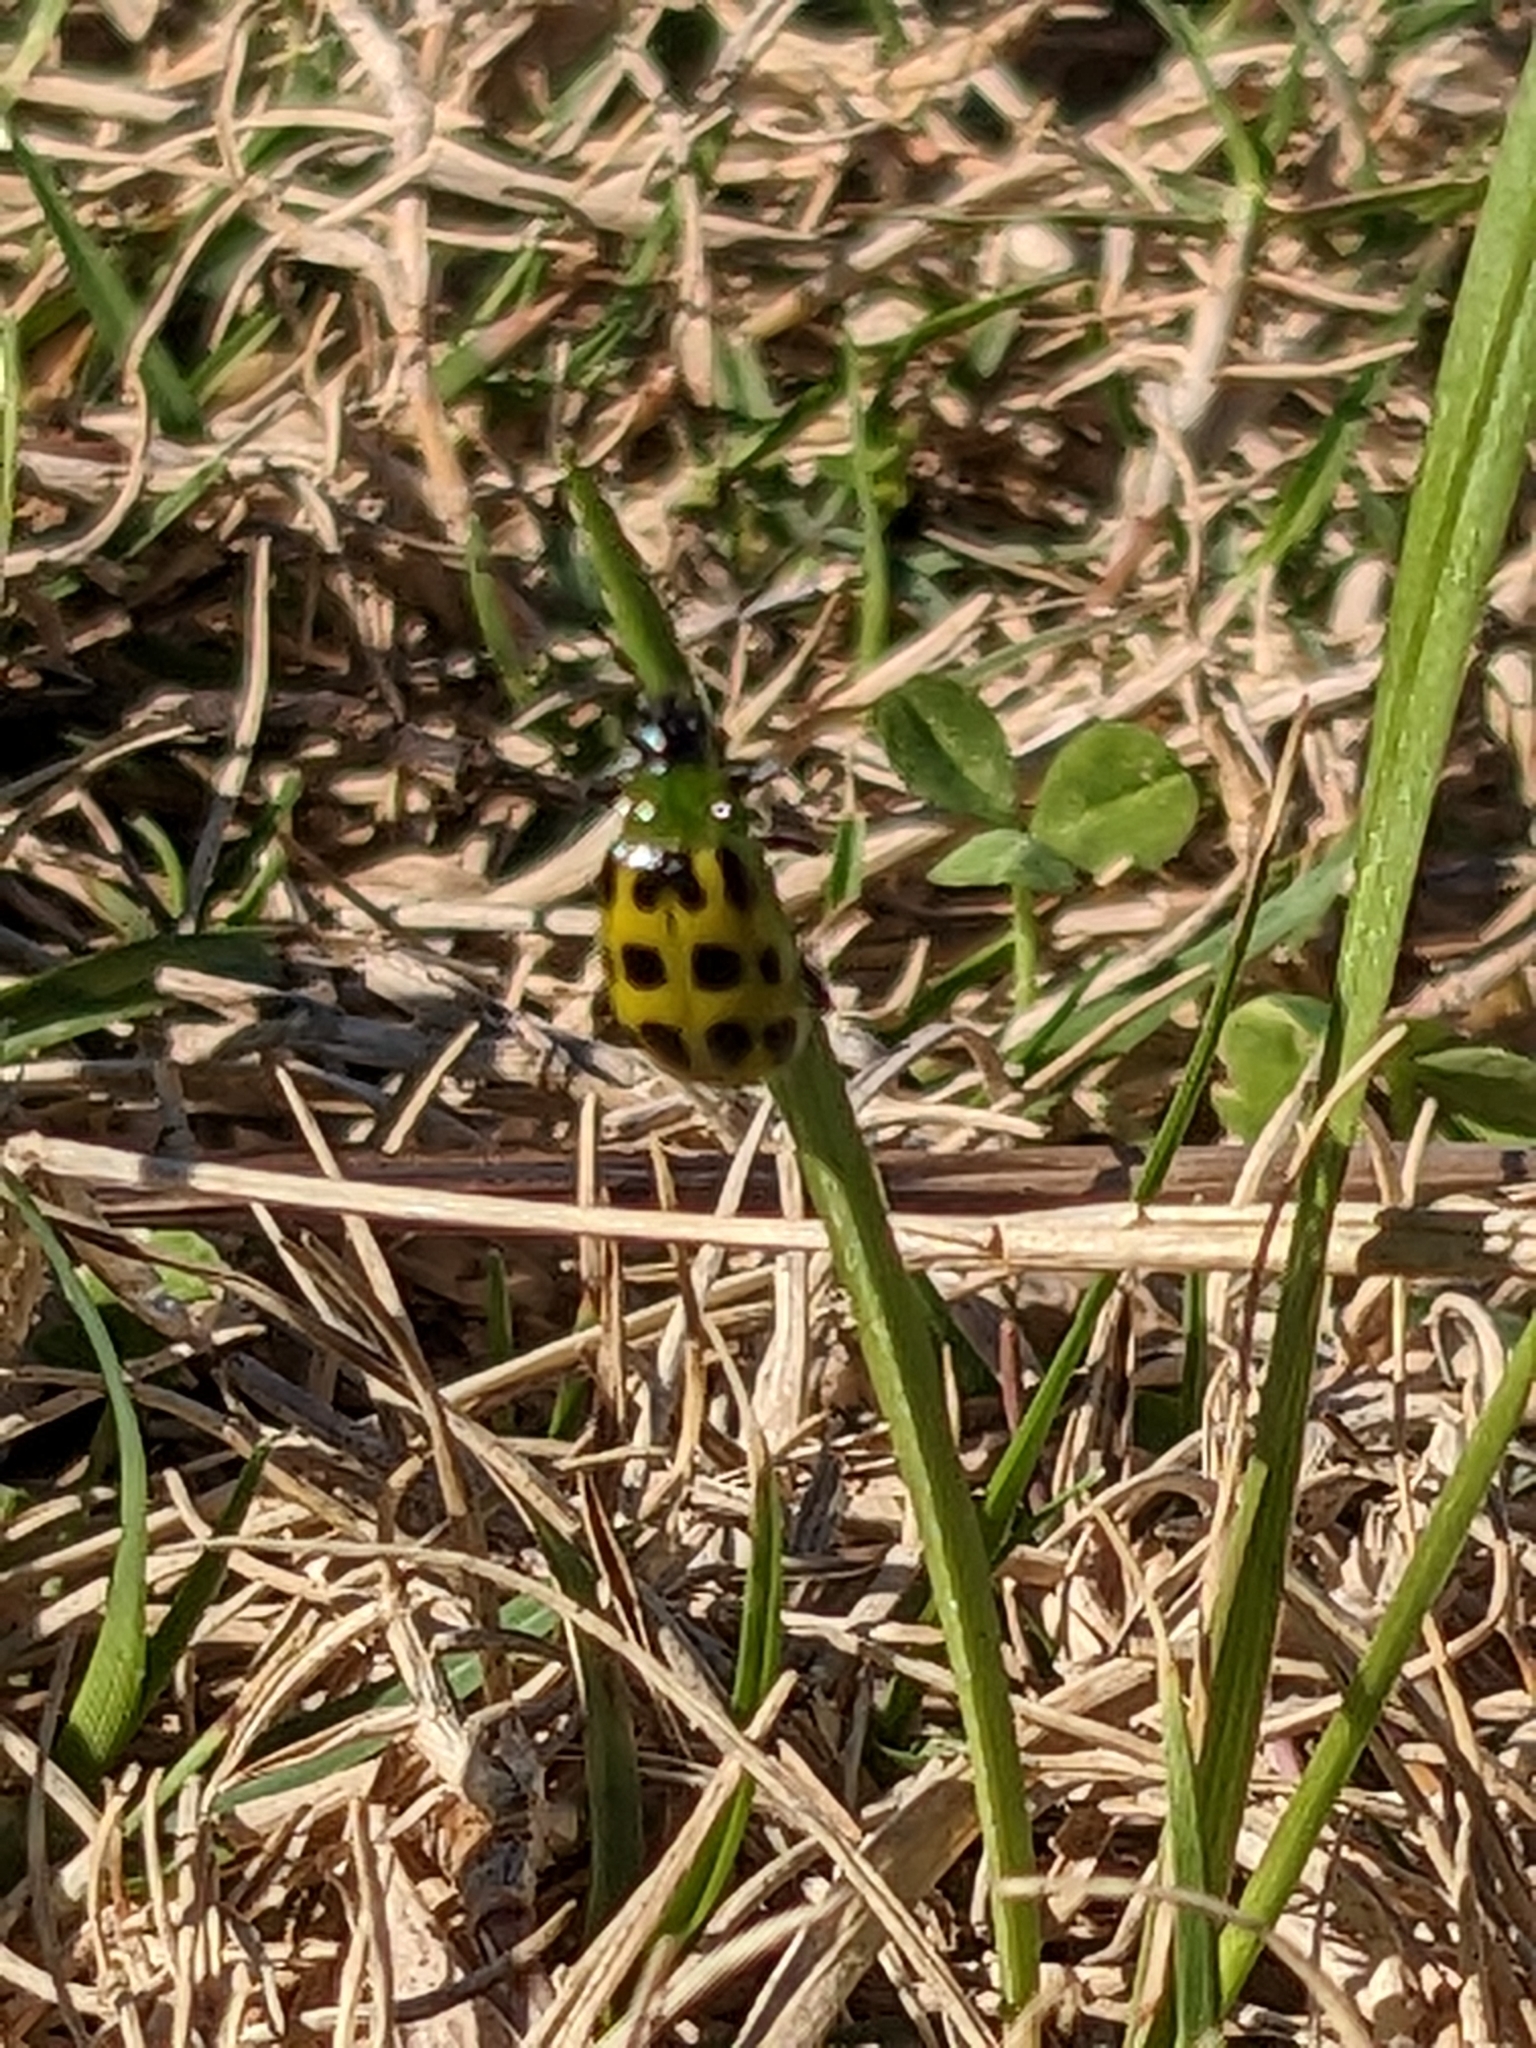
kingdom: Animalia
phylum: Arthropoda
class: Insecta
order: Coleoptera
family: Chrysomelidae
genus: Diabrotica
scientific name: Diabrotica undecimpunctata
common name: Spotted cucumber beetle
